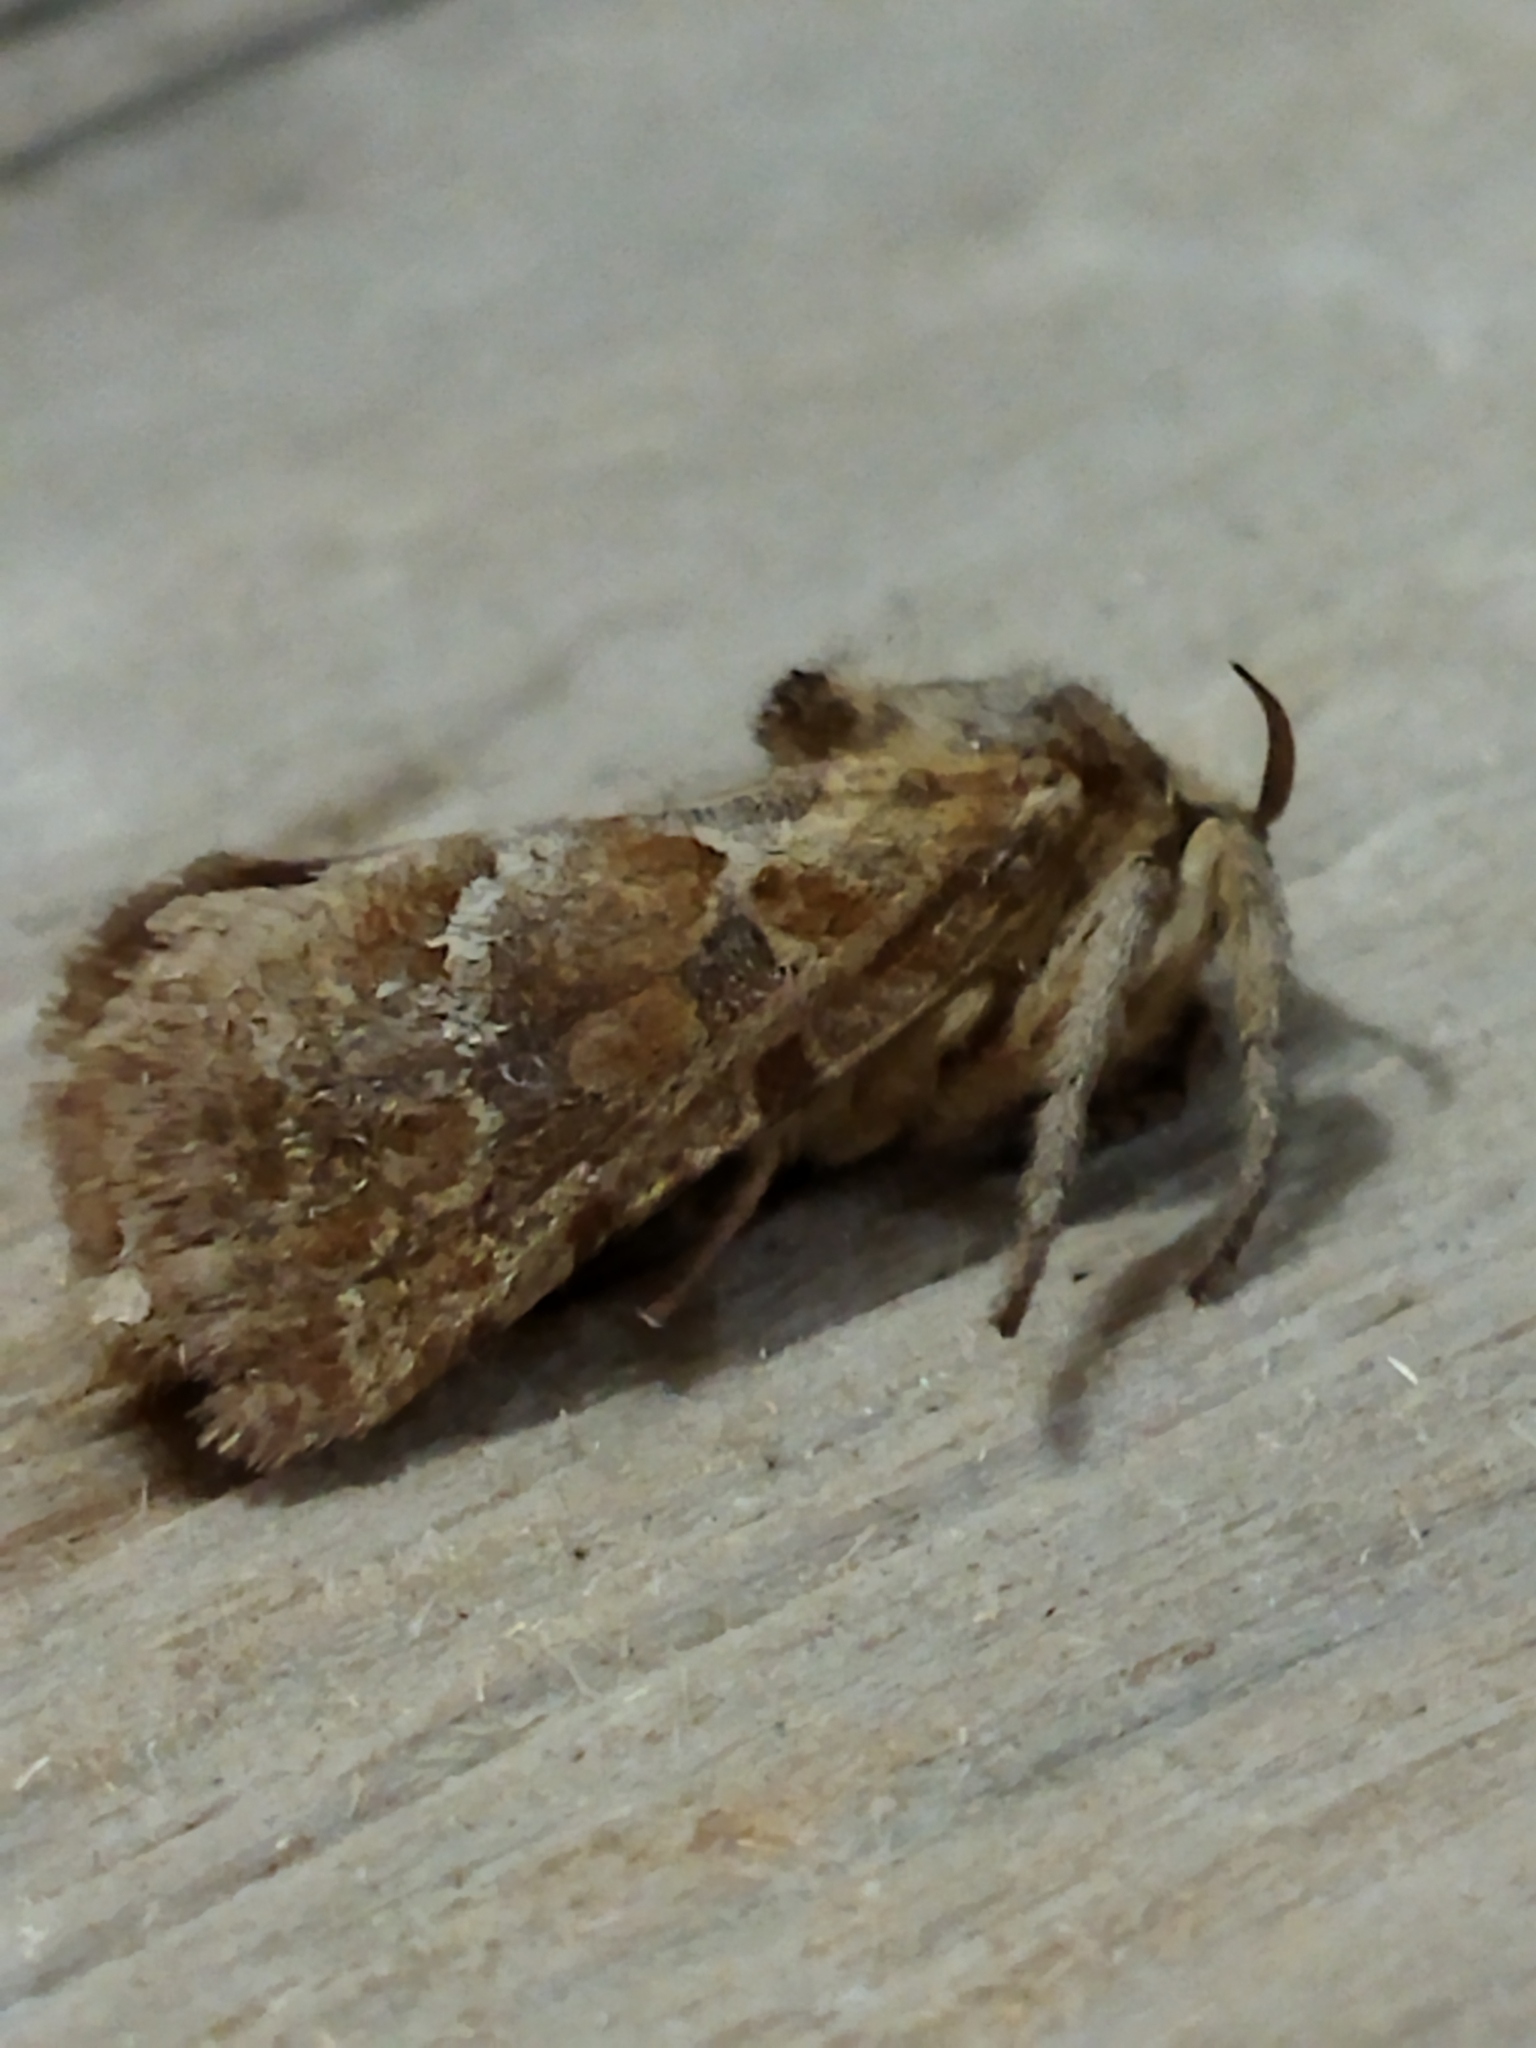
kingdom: Animalia
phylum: Arthropoda
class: Insecta
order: Lepidoptera
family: Hepialidae
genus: Triodia
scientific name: Triodia amasinus
